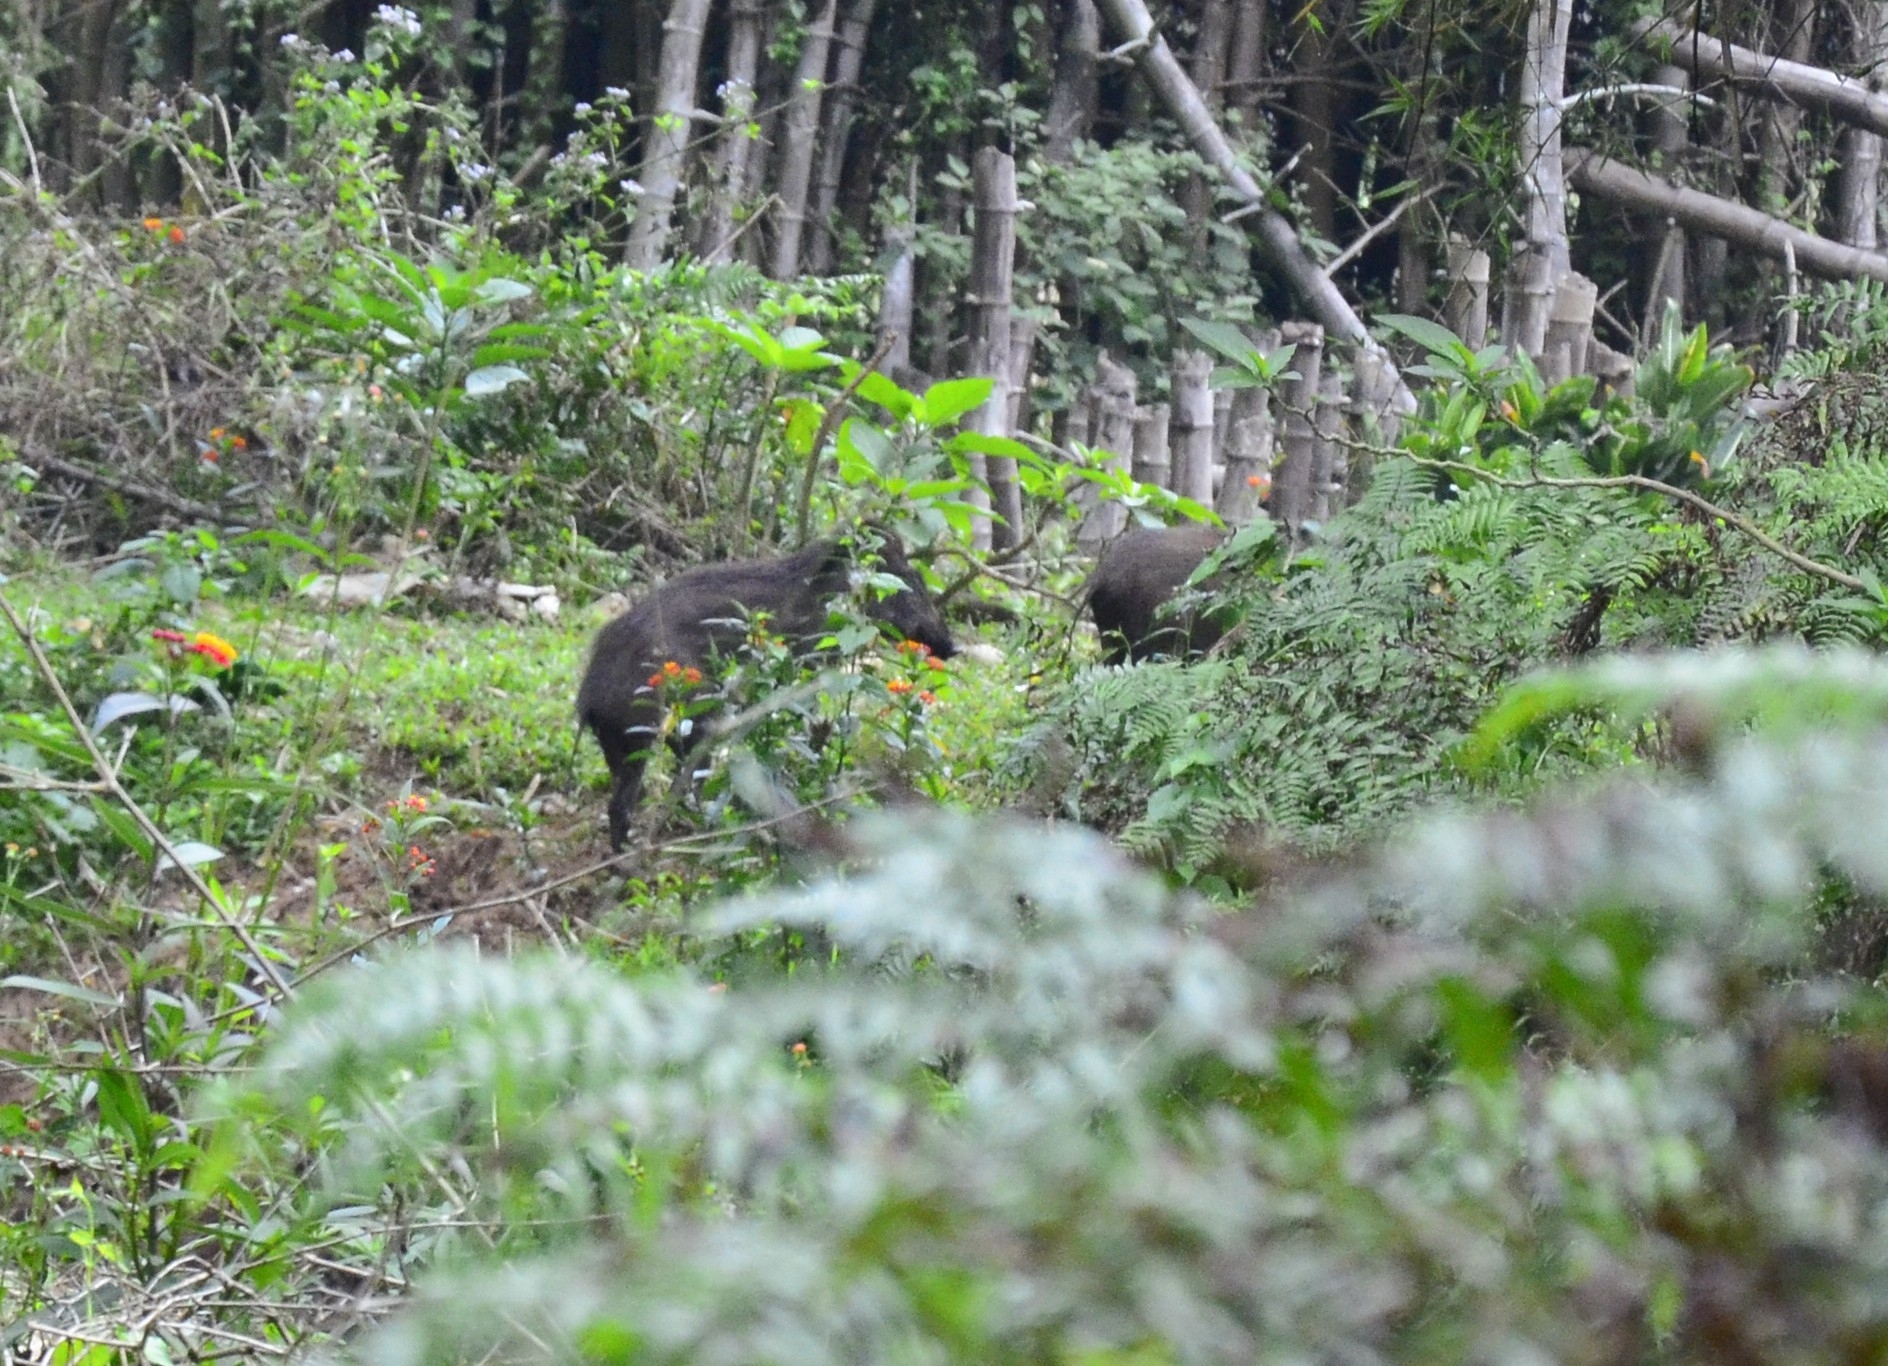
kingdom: Animalia
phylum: Chordata
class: Mammalia
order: Artiodactyla
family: Suidae
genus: Sus
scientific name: Sus scrofa
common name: Wild boar
